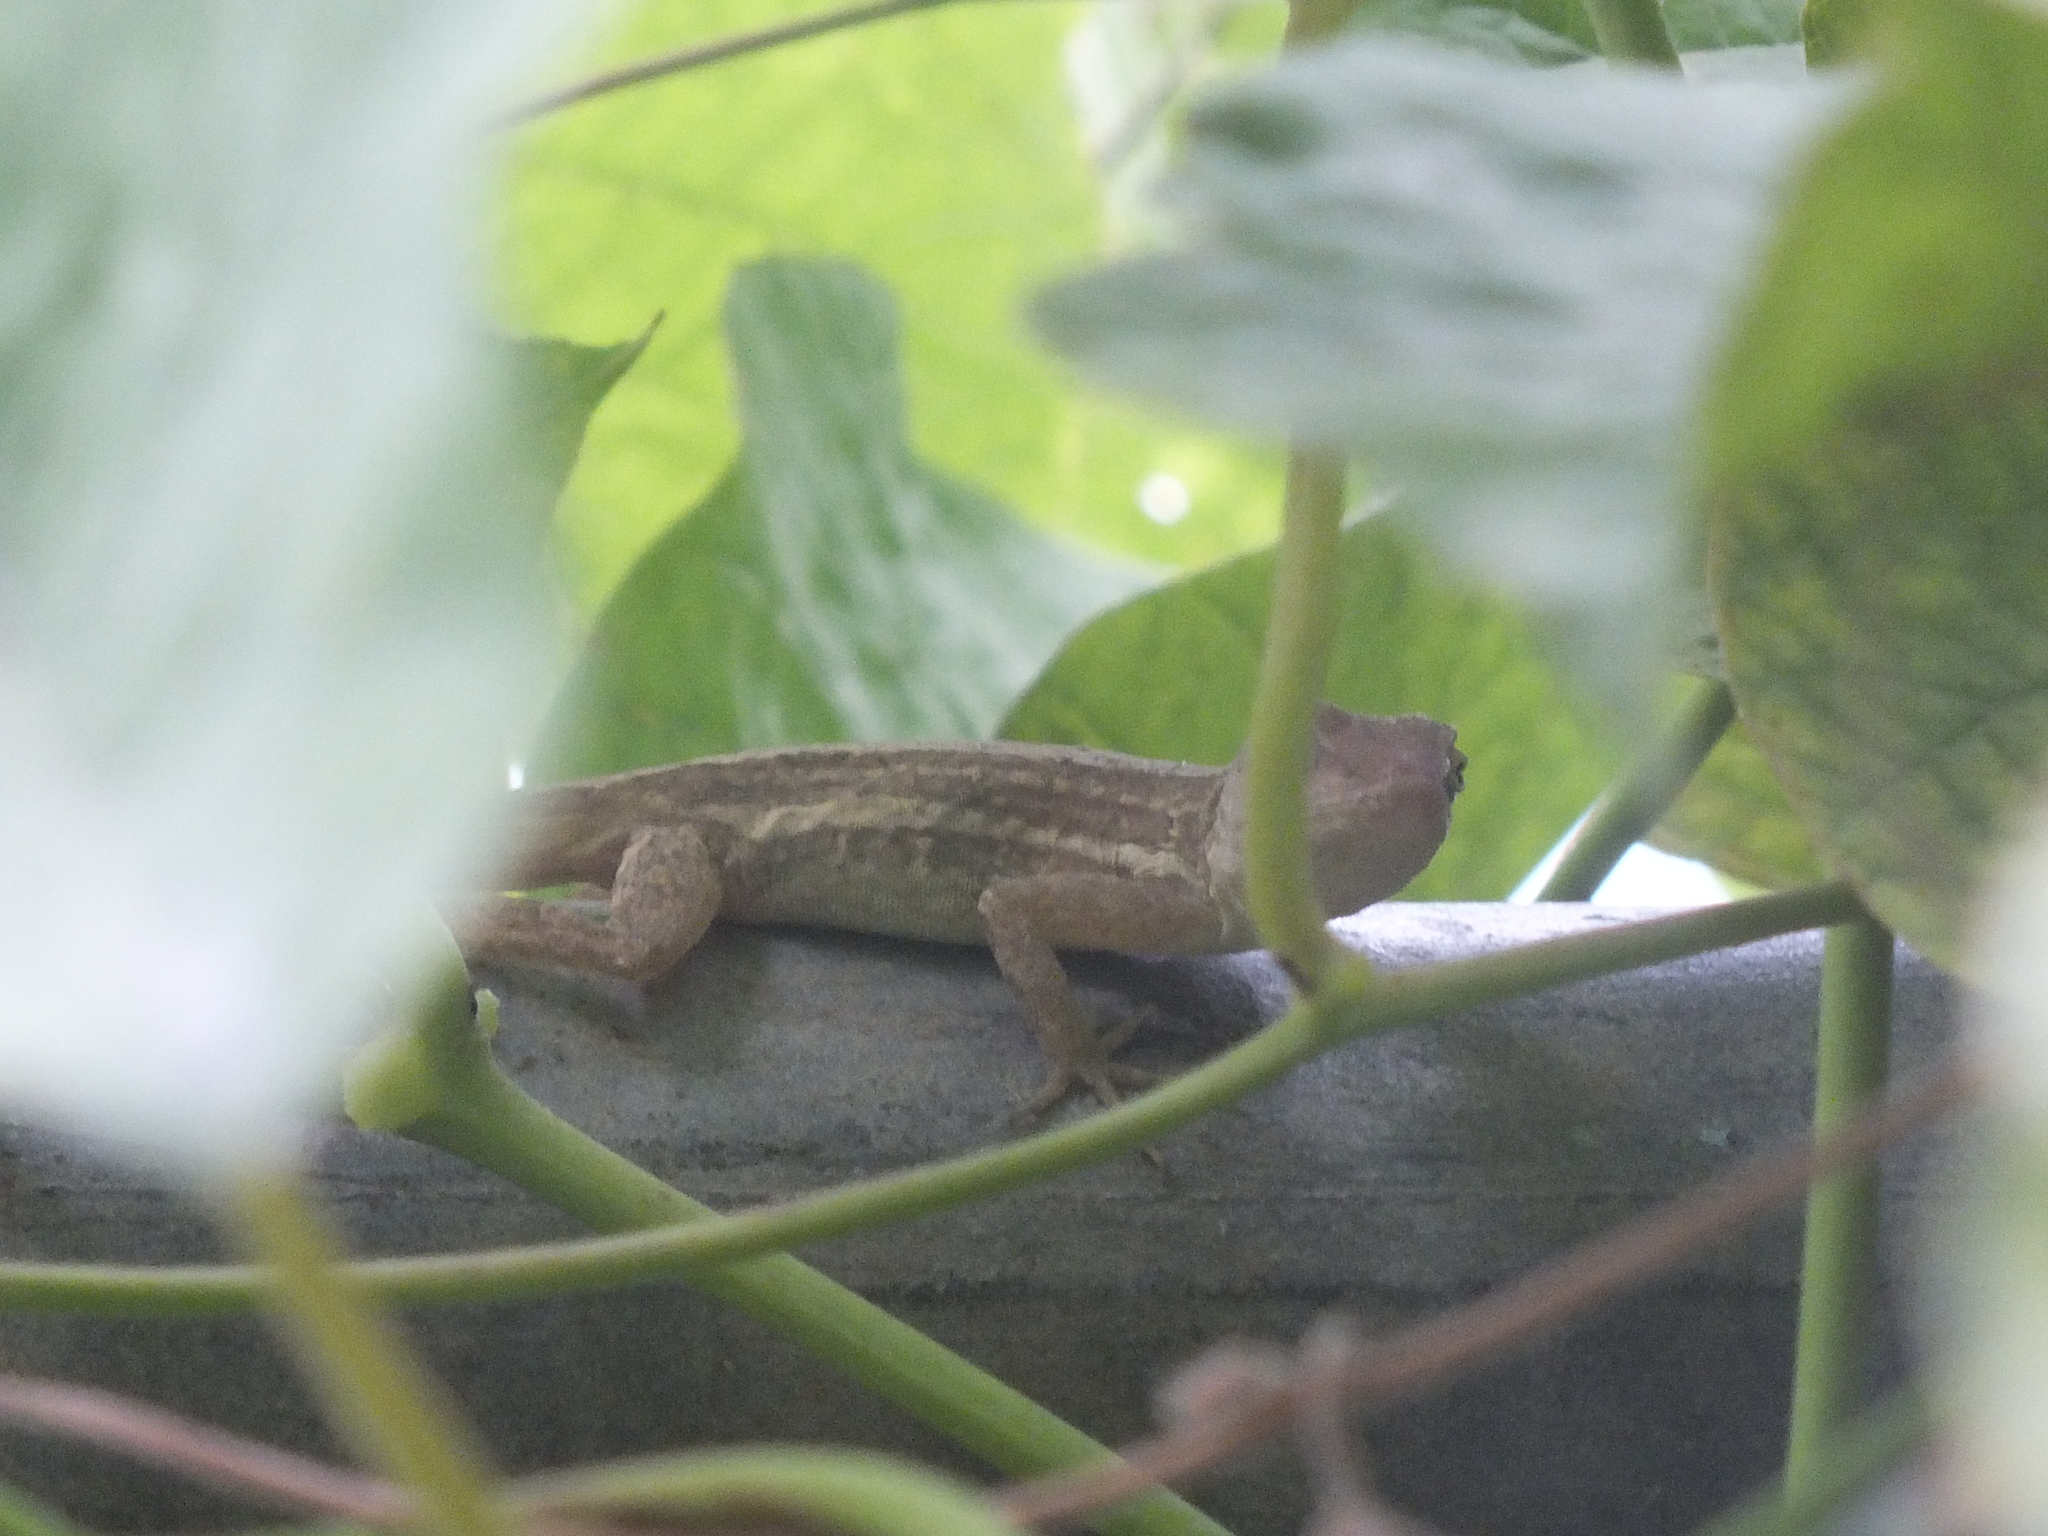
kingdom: Animalia
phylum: Chordata
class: Squamata
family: Dactyloidae
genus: Anolis
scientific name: Anolis lineatopus
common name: Stripefoot anole
